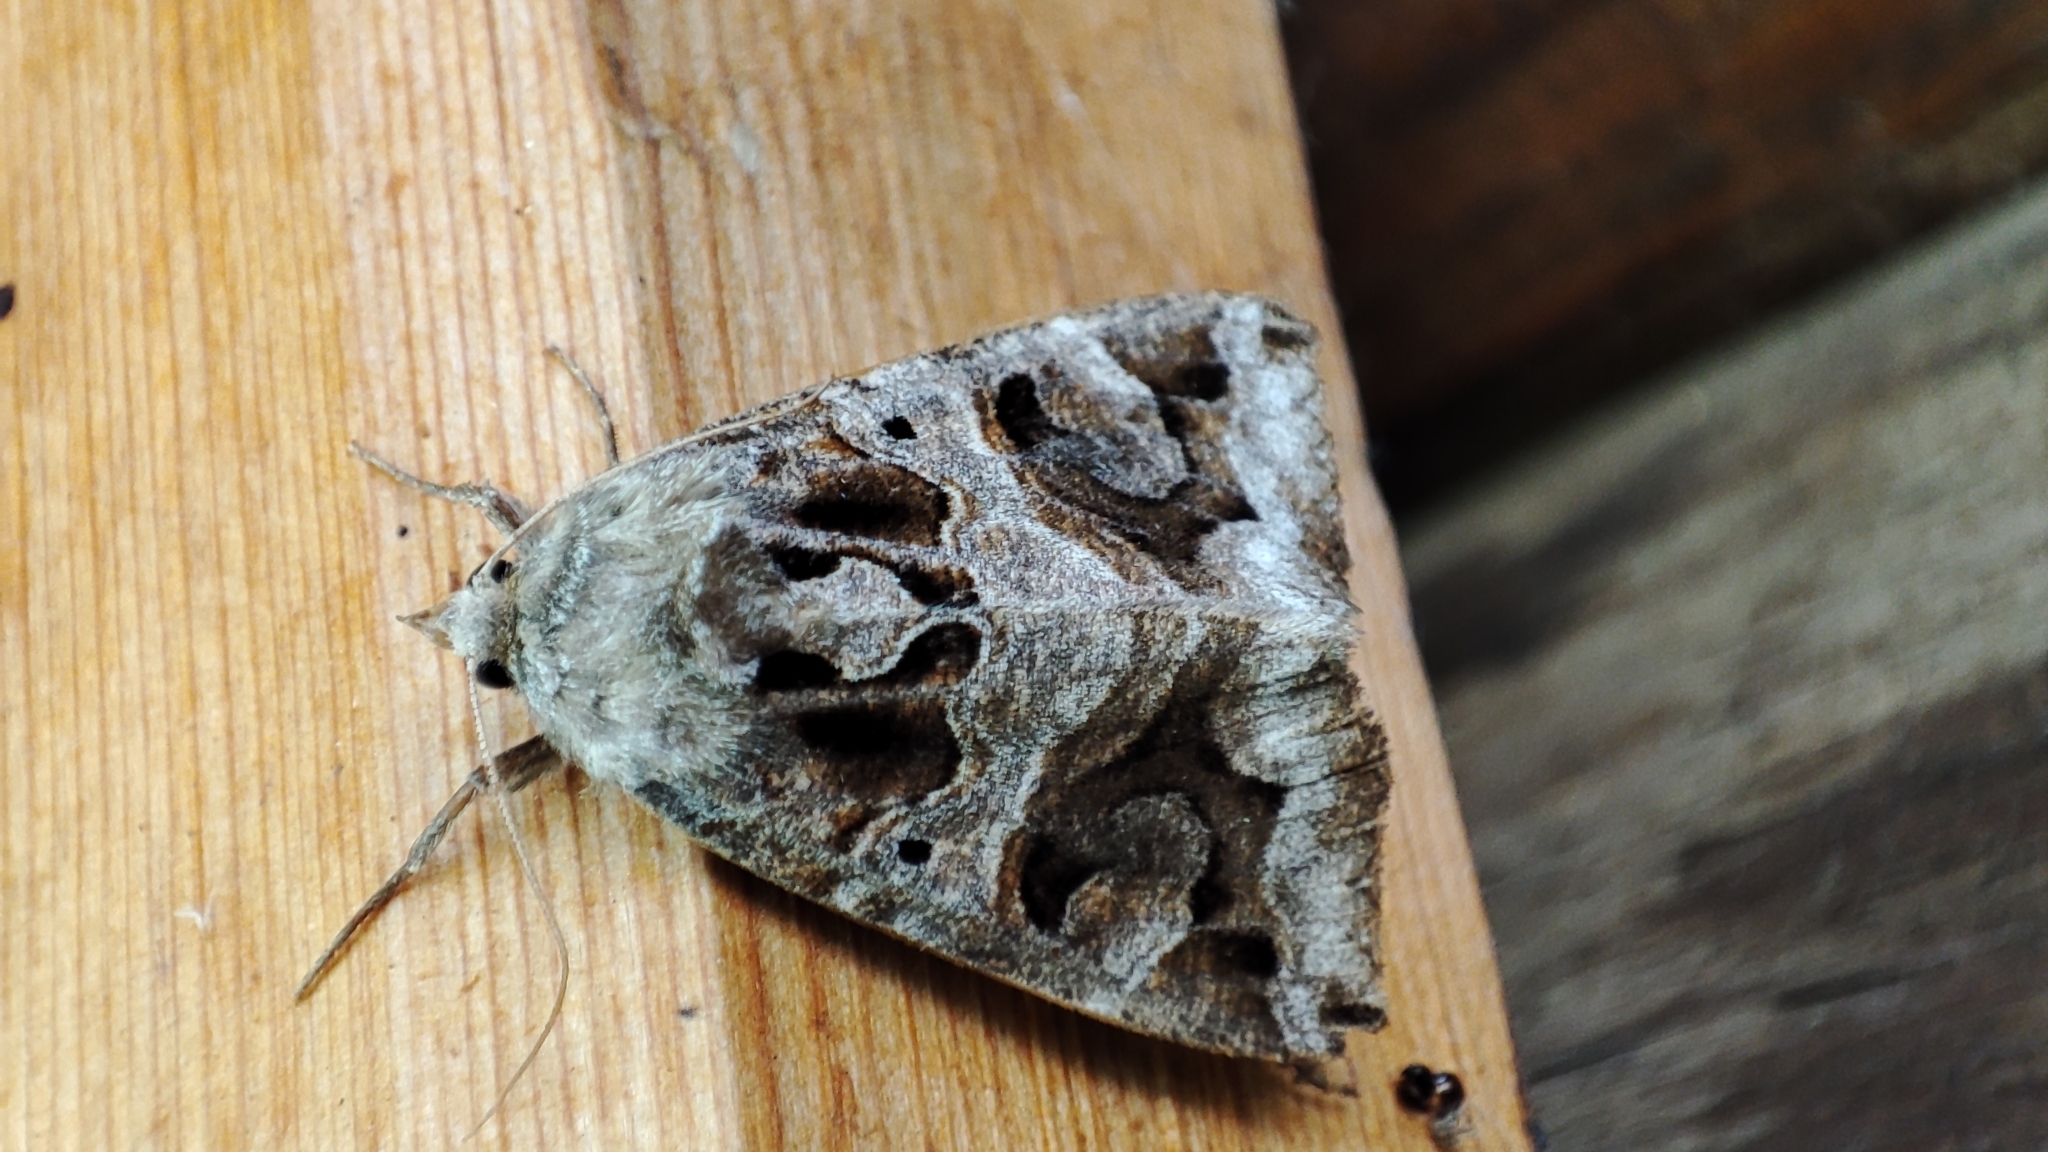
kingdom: Animalia
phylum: Arthropoda
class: Insecta
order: Lepidoptera
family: Erebidae
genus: Chrysorithrum
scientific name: Chrysorithrum flavomaculata
